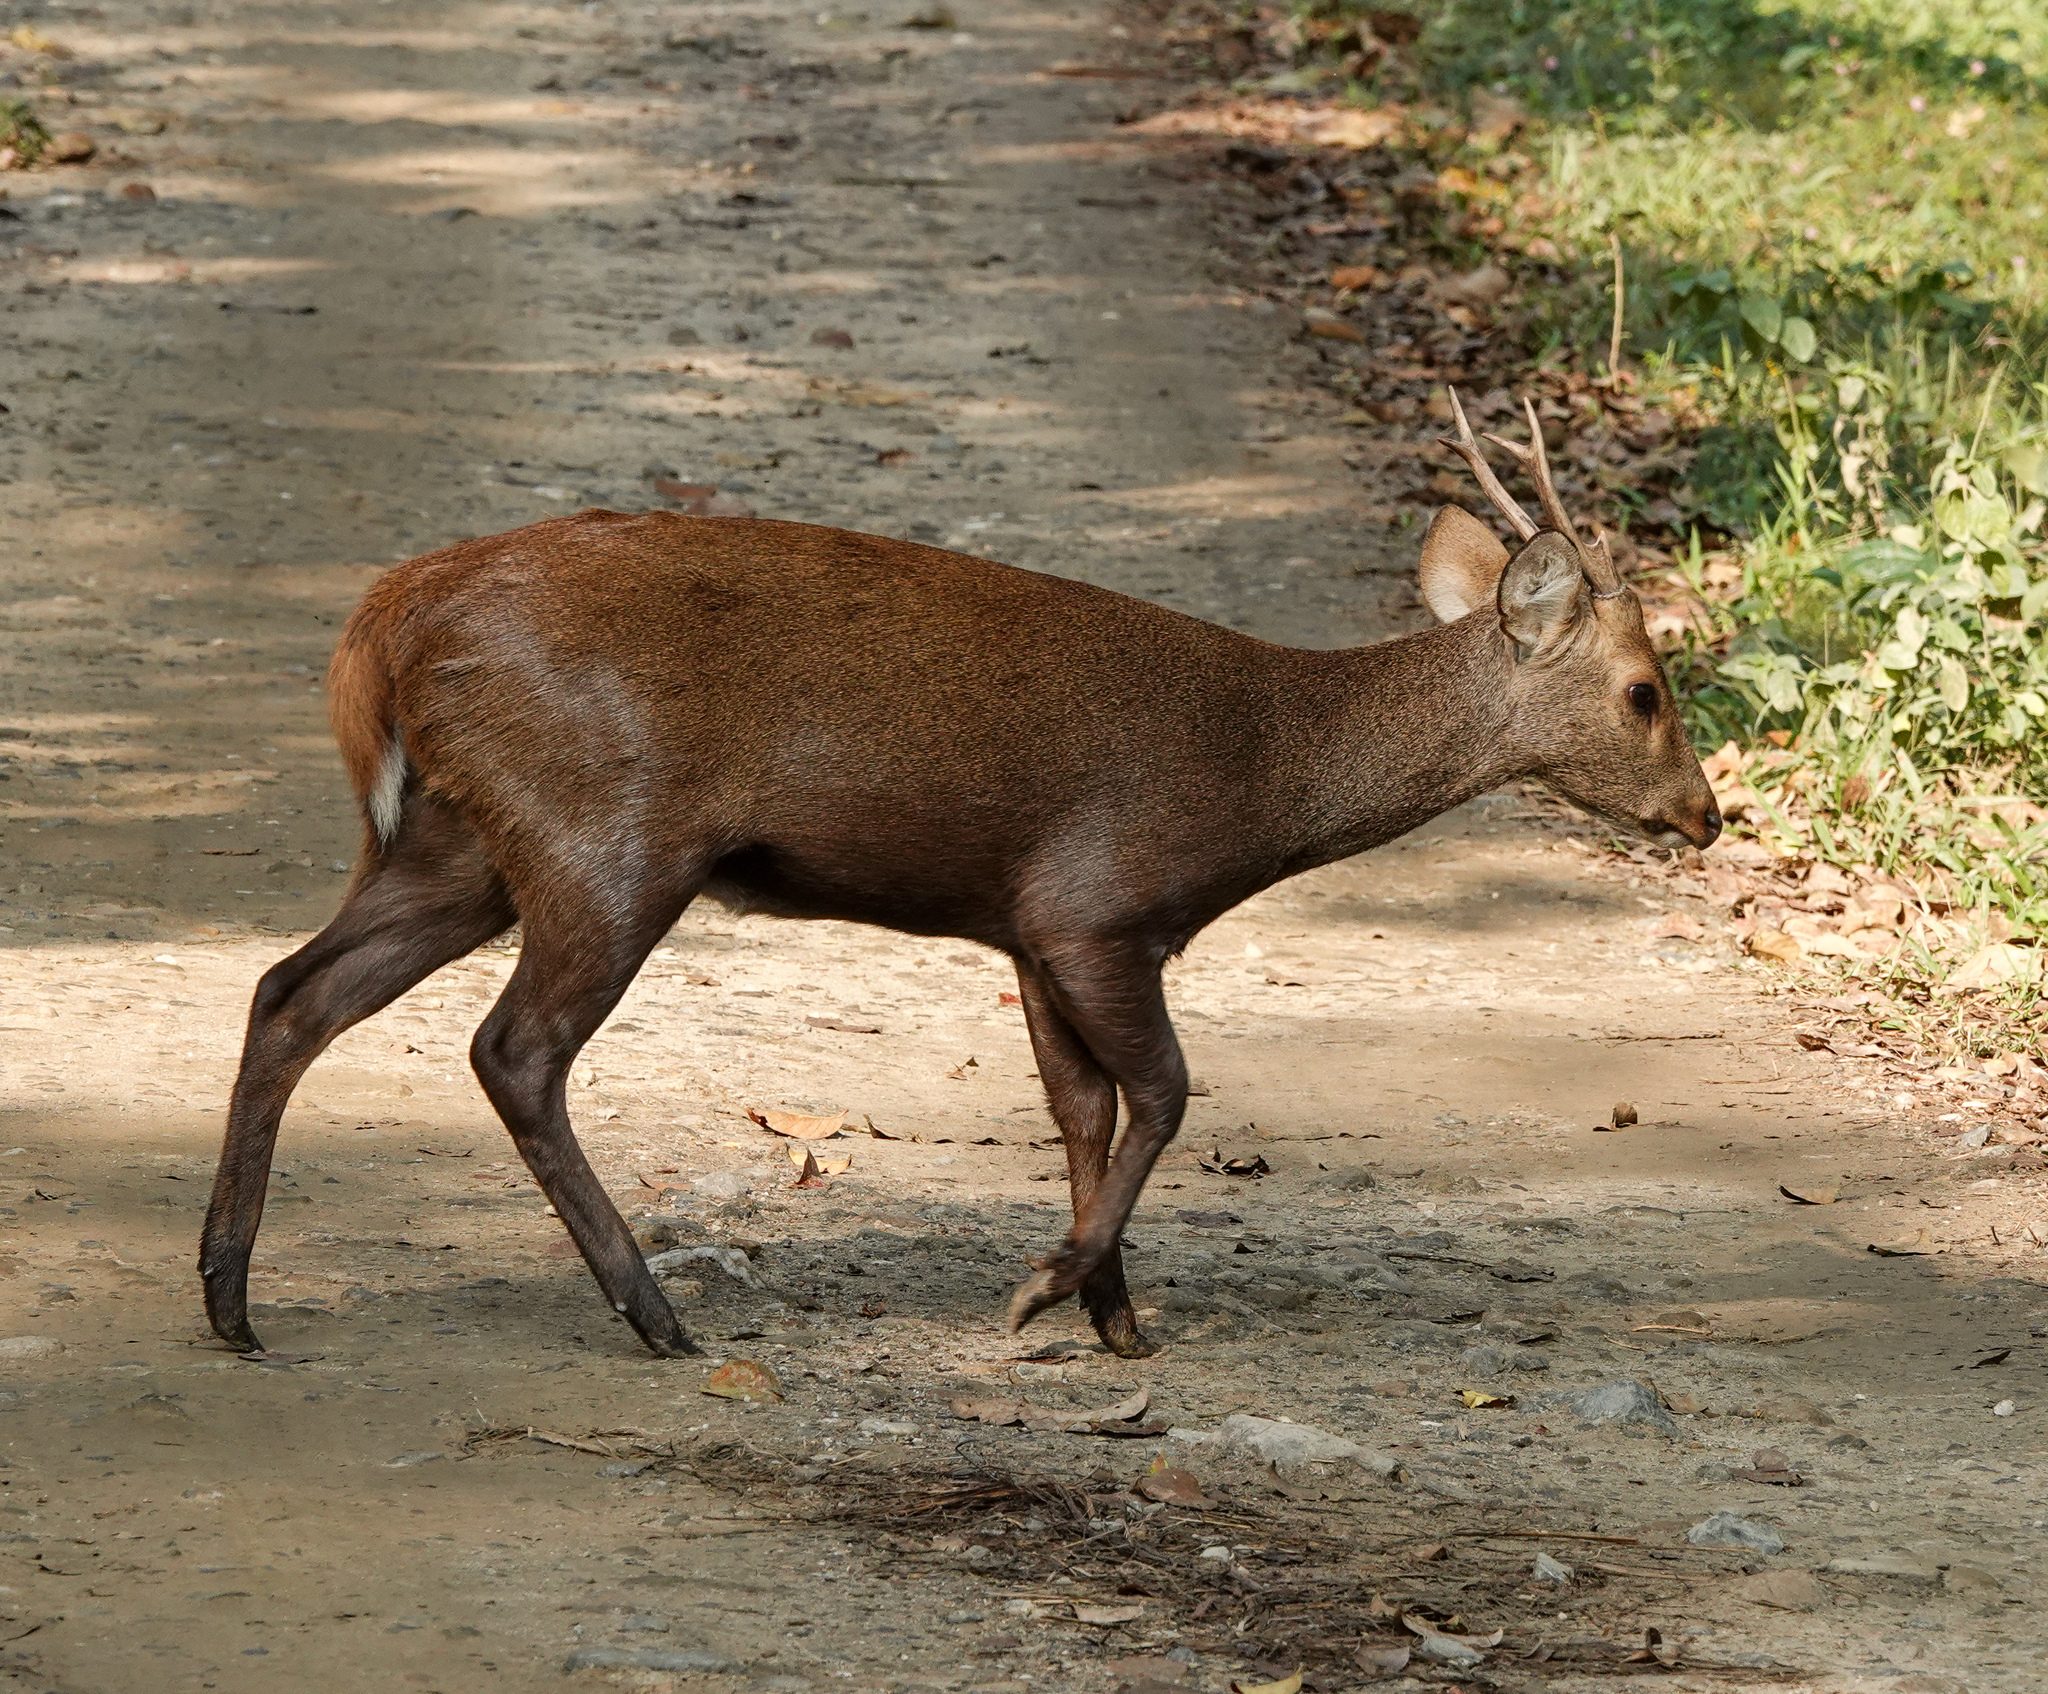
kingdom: Animalia
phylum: Chordata
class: Mammalia
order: Artiodactyla
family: Cervidae
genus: Axis
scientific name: Axis porcinus
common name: Hog deer
